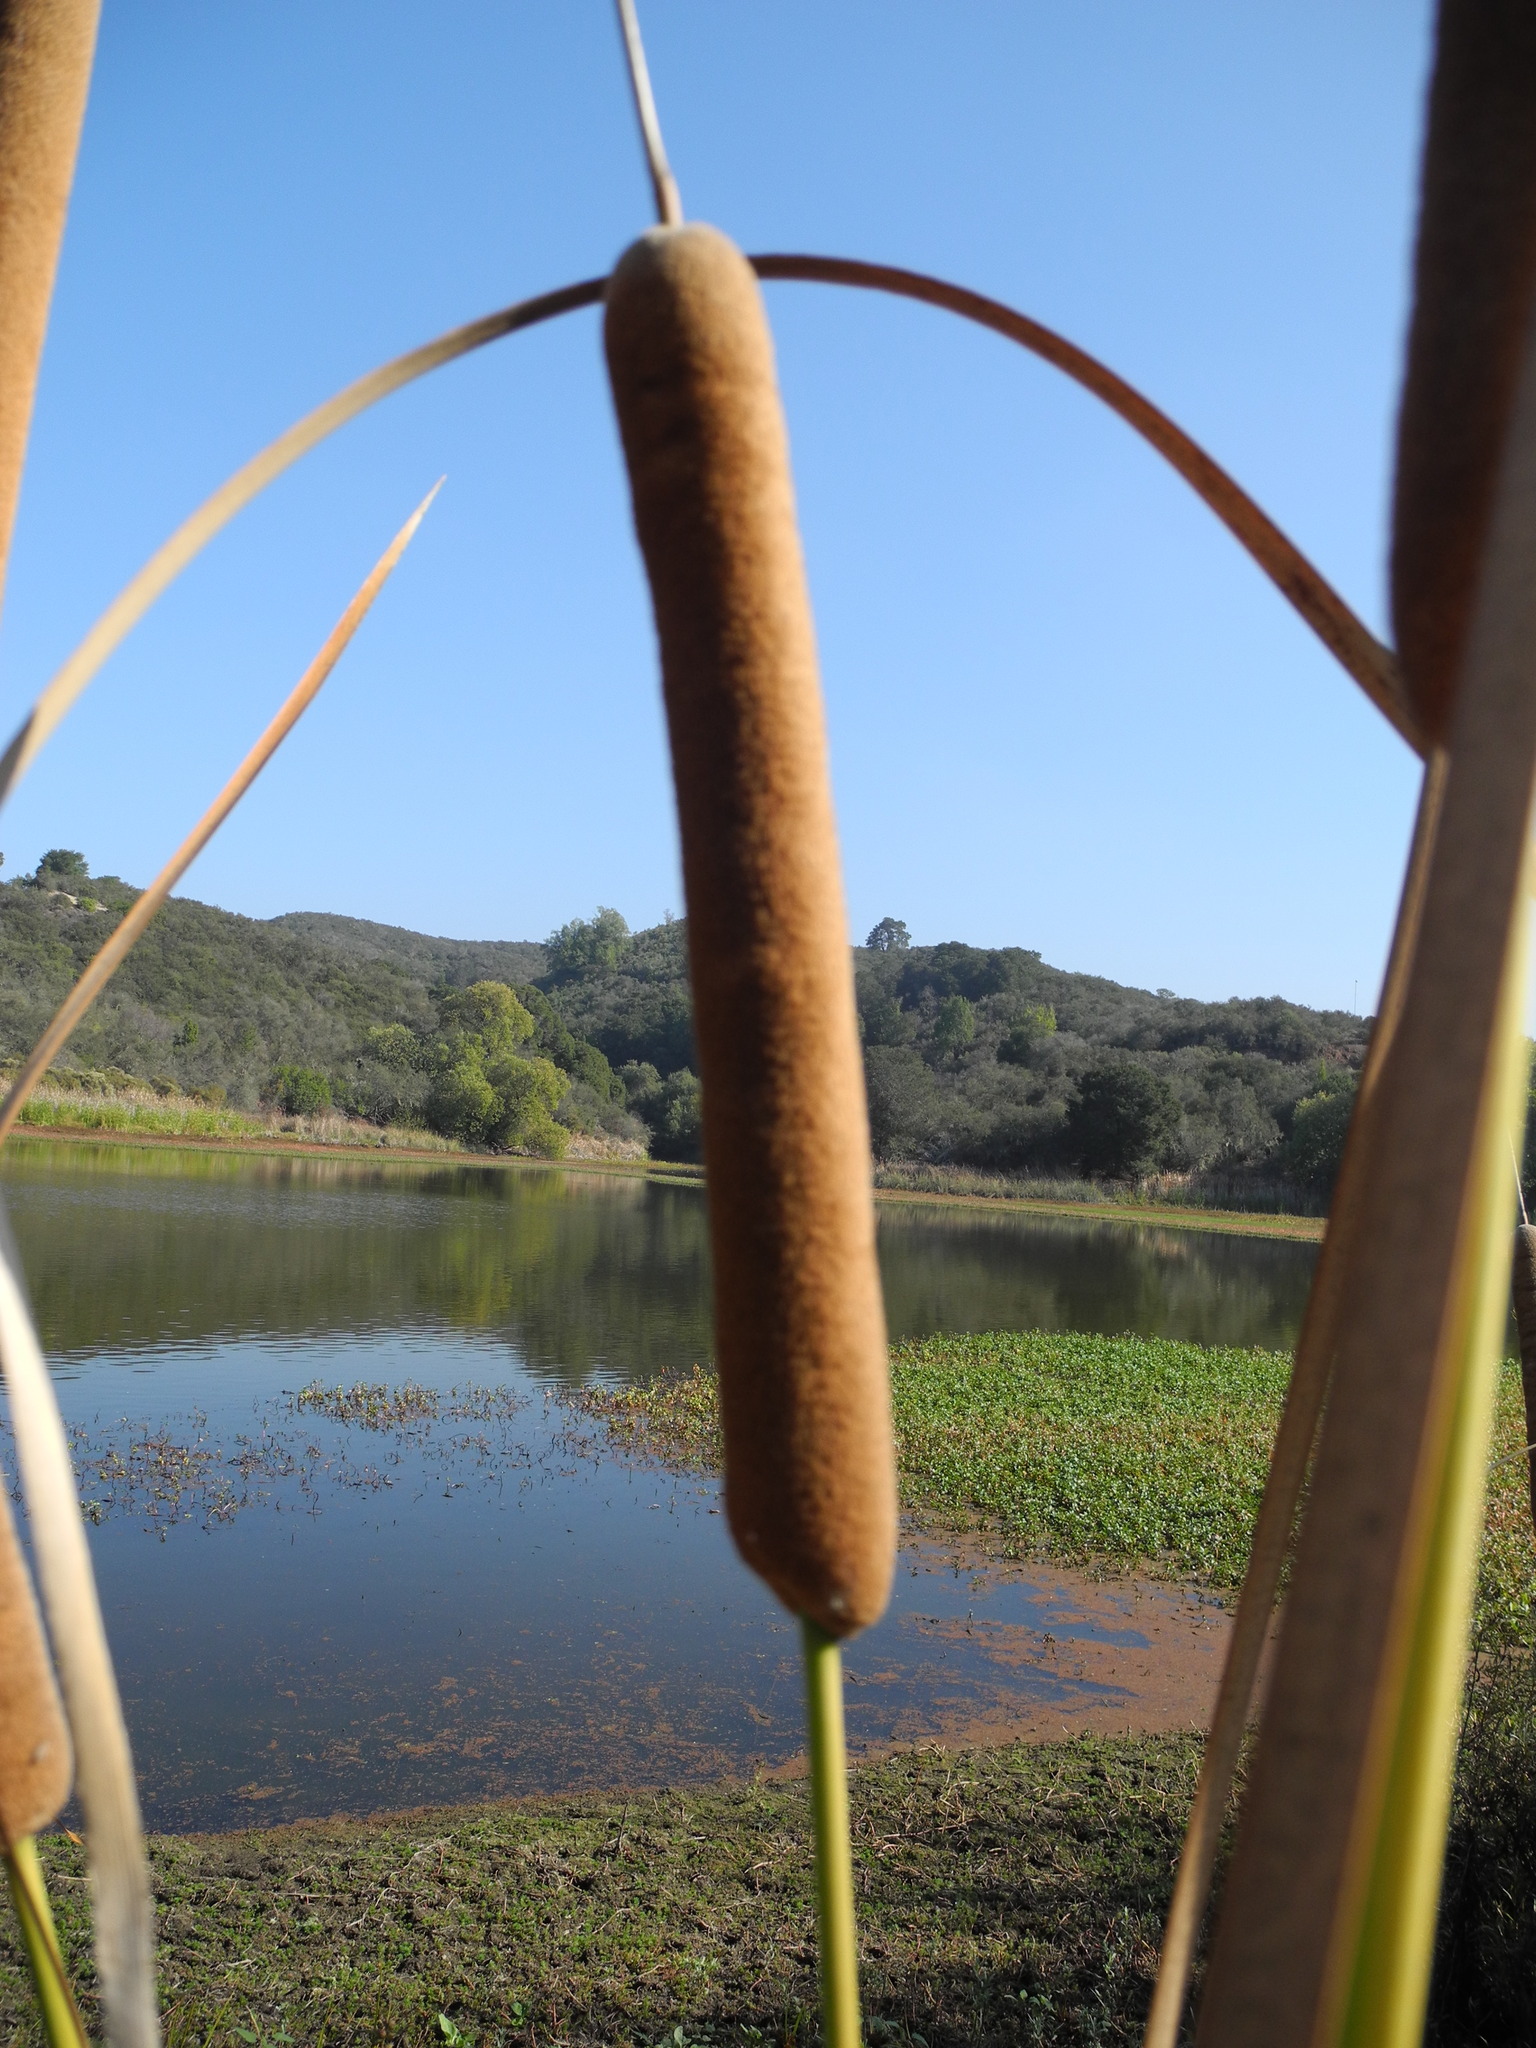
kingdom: Plantae
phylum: Tracheophyta
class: Liliopsida
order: Poales
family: Typhaceae
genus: Typha
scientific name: Typha latifolia
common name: Broadleaf cattail
